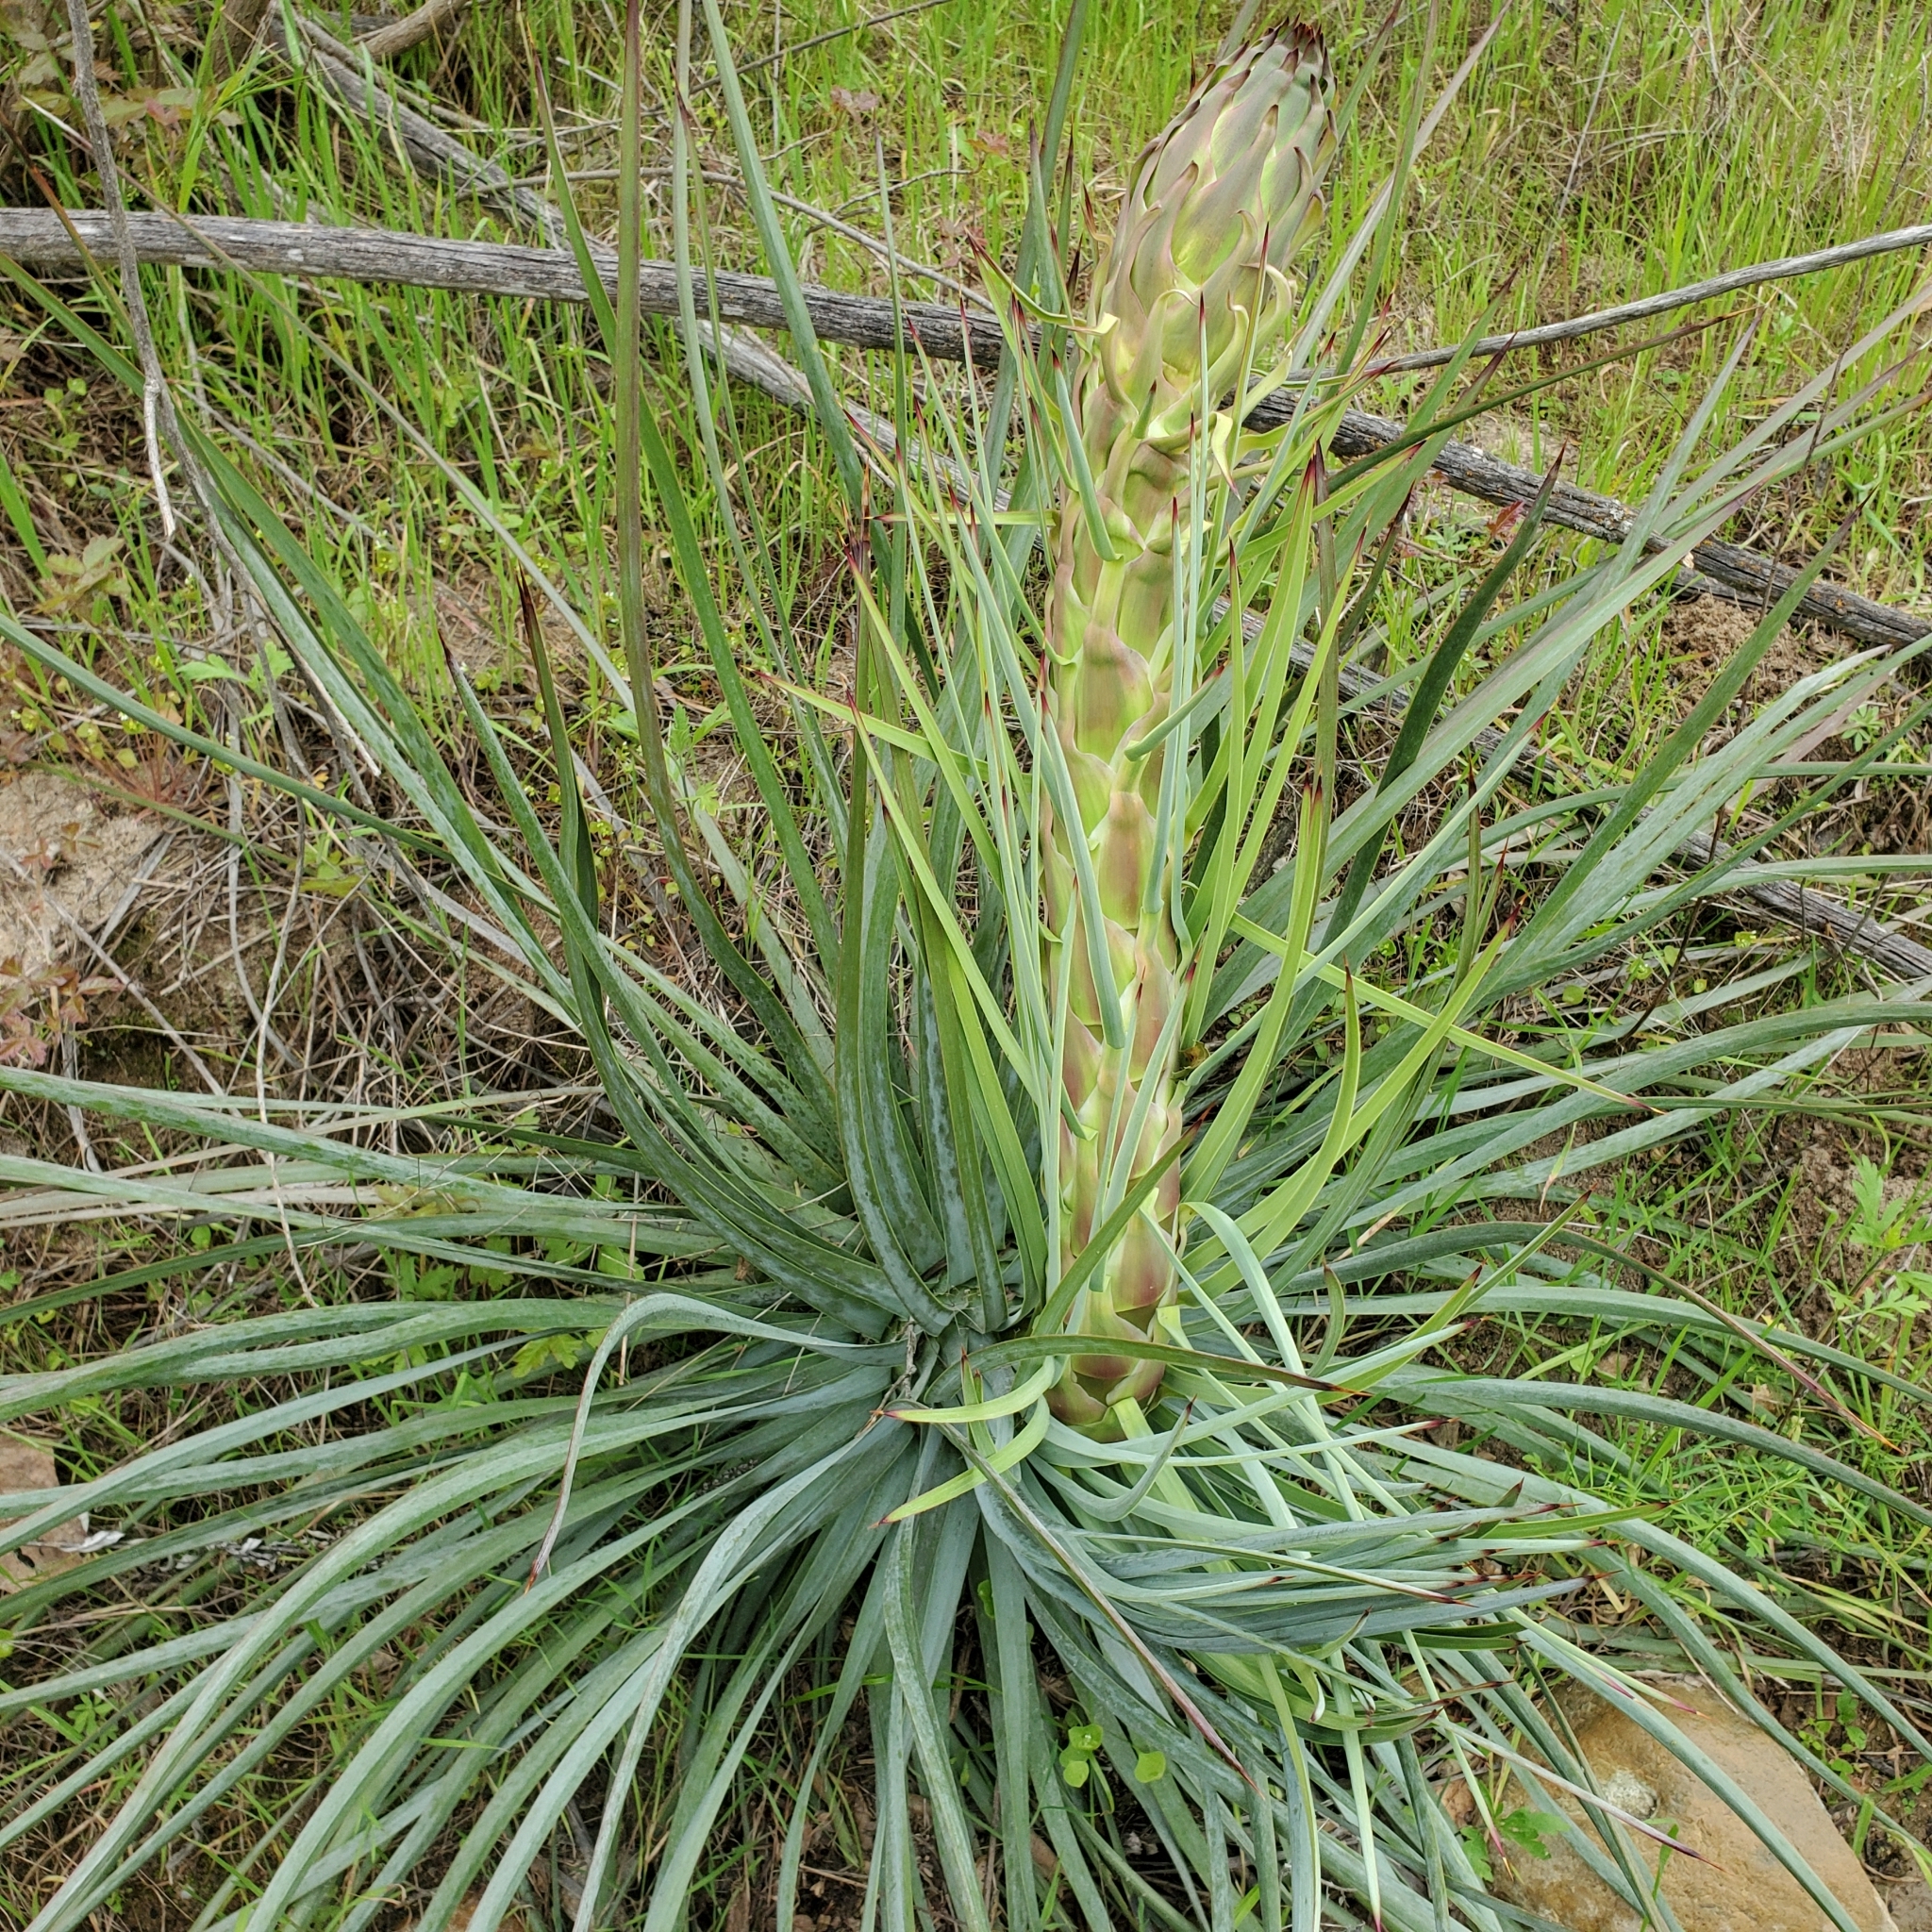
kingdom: Plantae
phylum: Tracheophyta
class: Liliopsida
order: Asparagales
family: Asparagaceae
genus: Hesperoyucca
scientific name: Hesperoyucca whipplei
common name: Our lord's-candle
